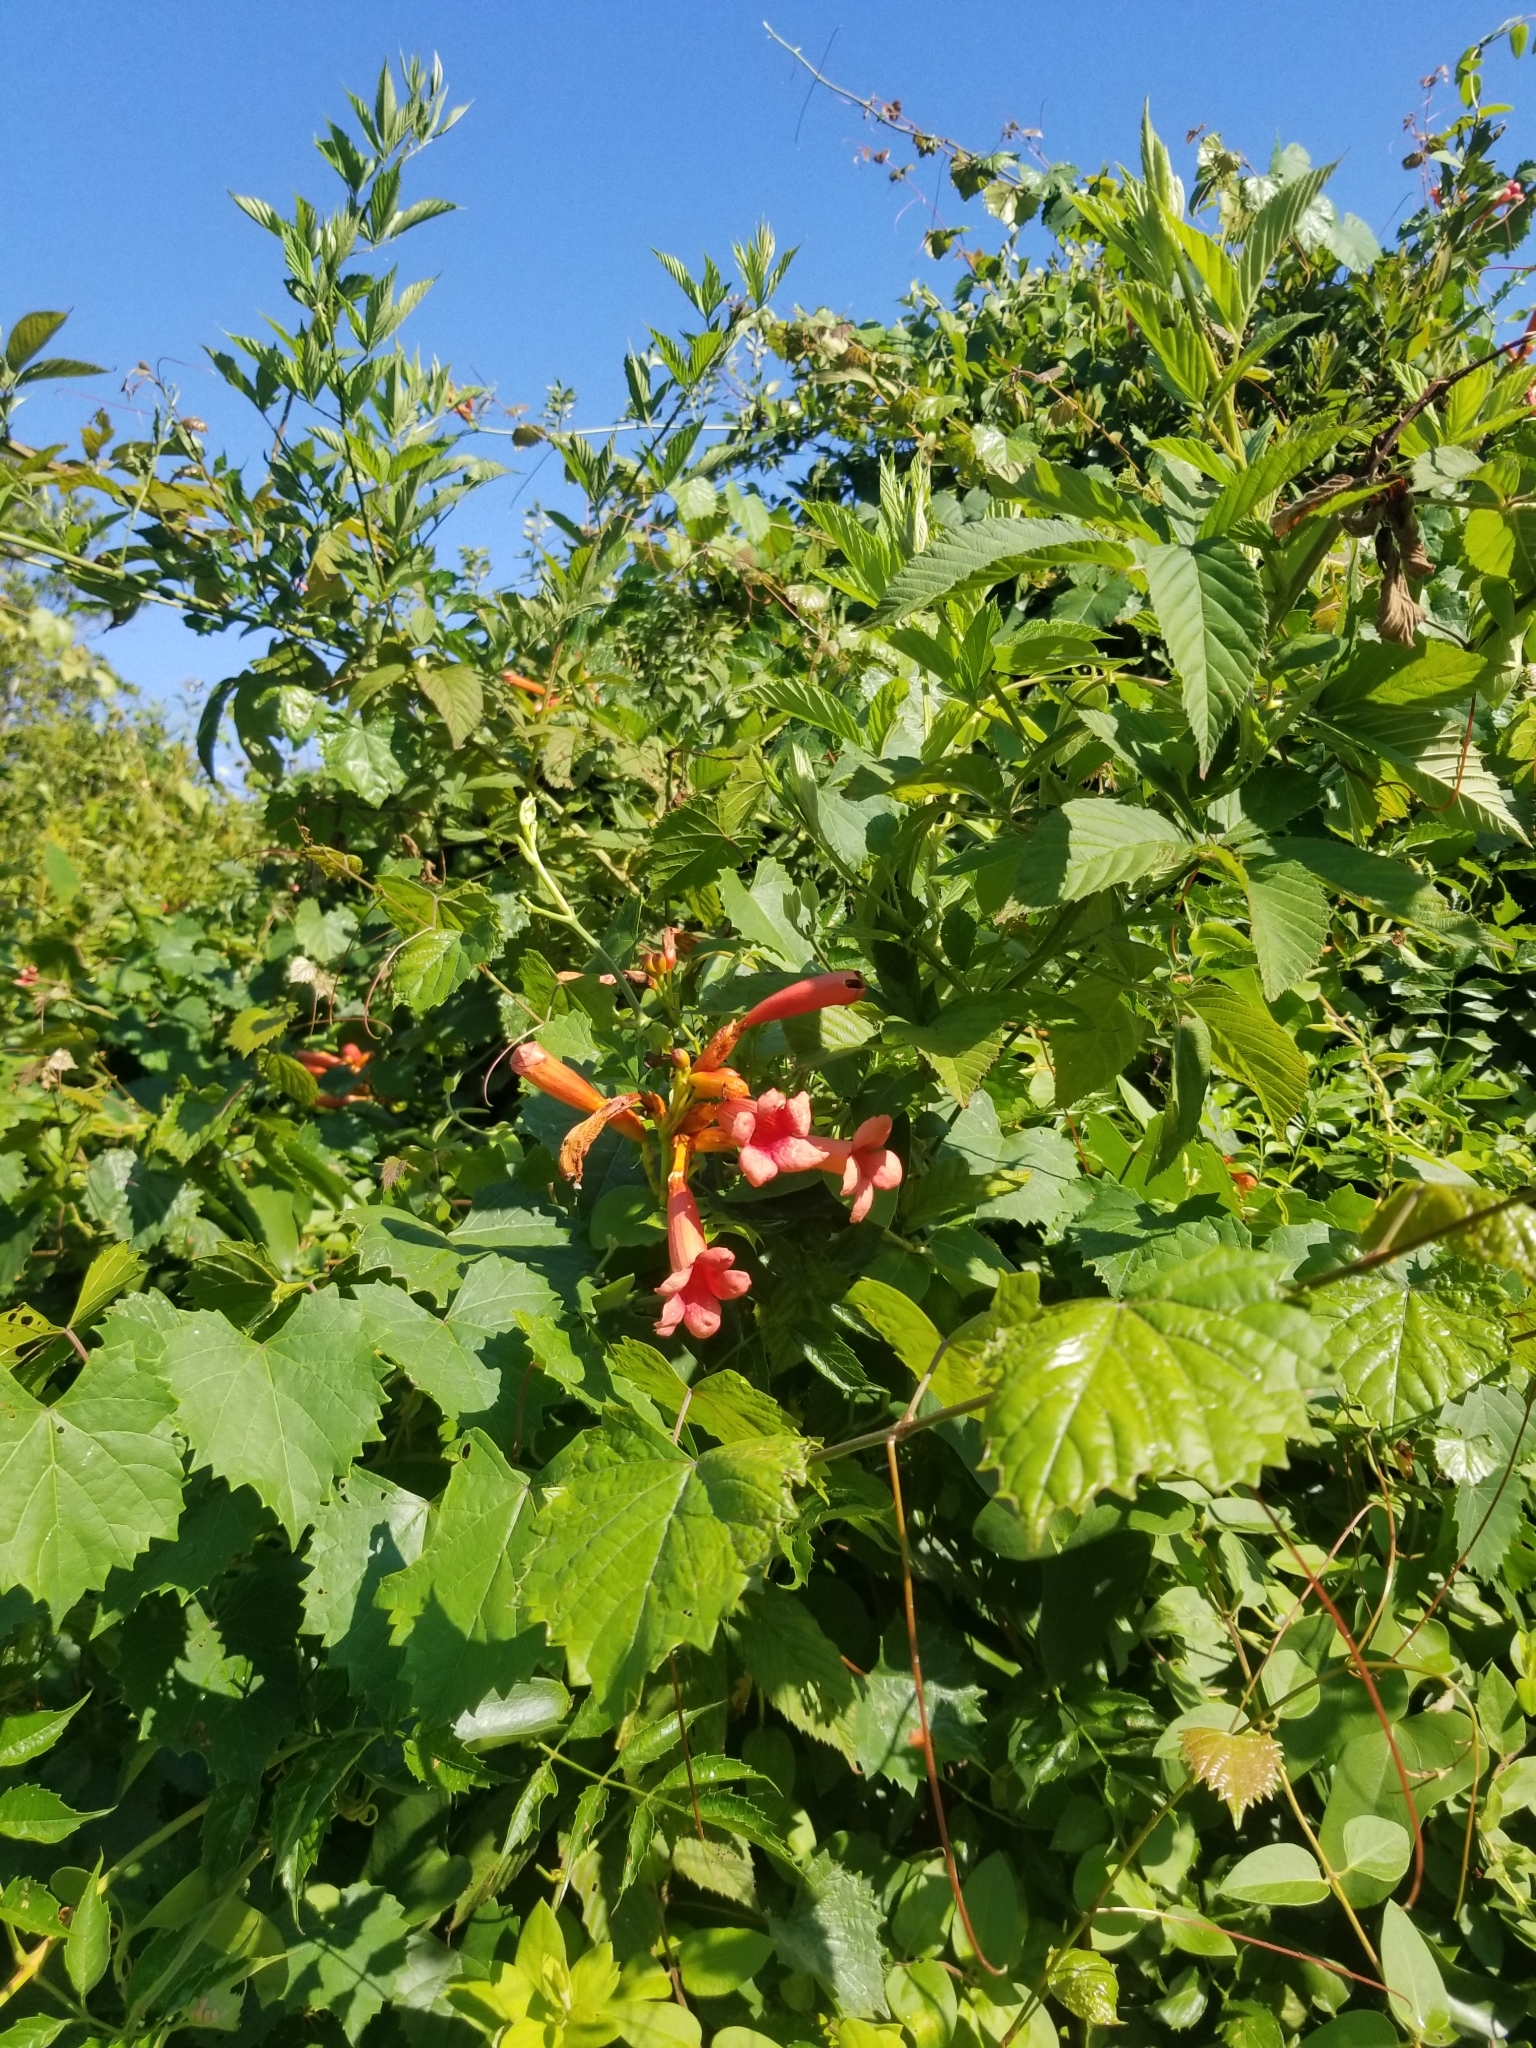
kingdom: Plantae
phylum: Tracheophyta
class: Magnoliopsida
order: Lamiales
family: Bignoniaceae
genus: Campsis
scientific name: Campsis radicans
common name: Trumpet-creeper
